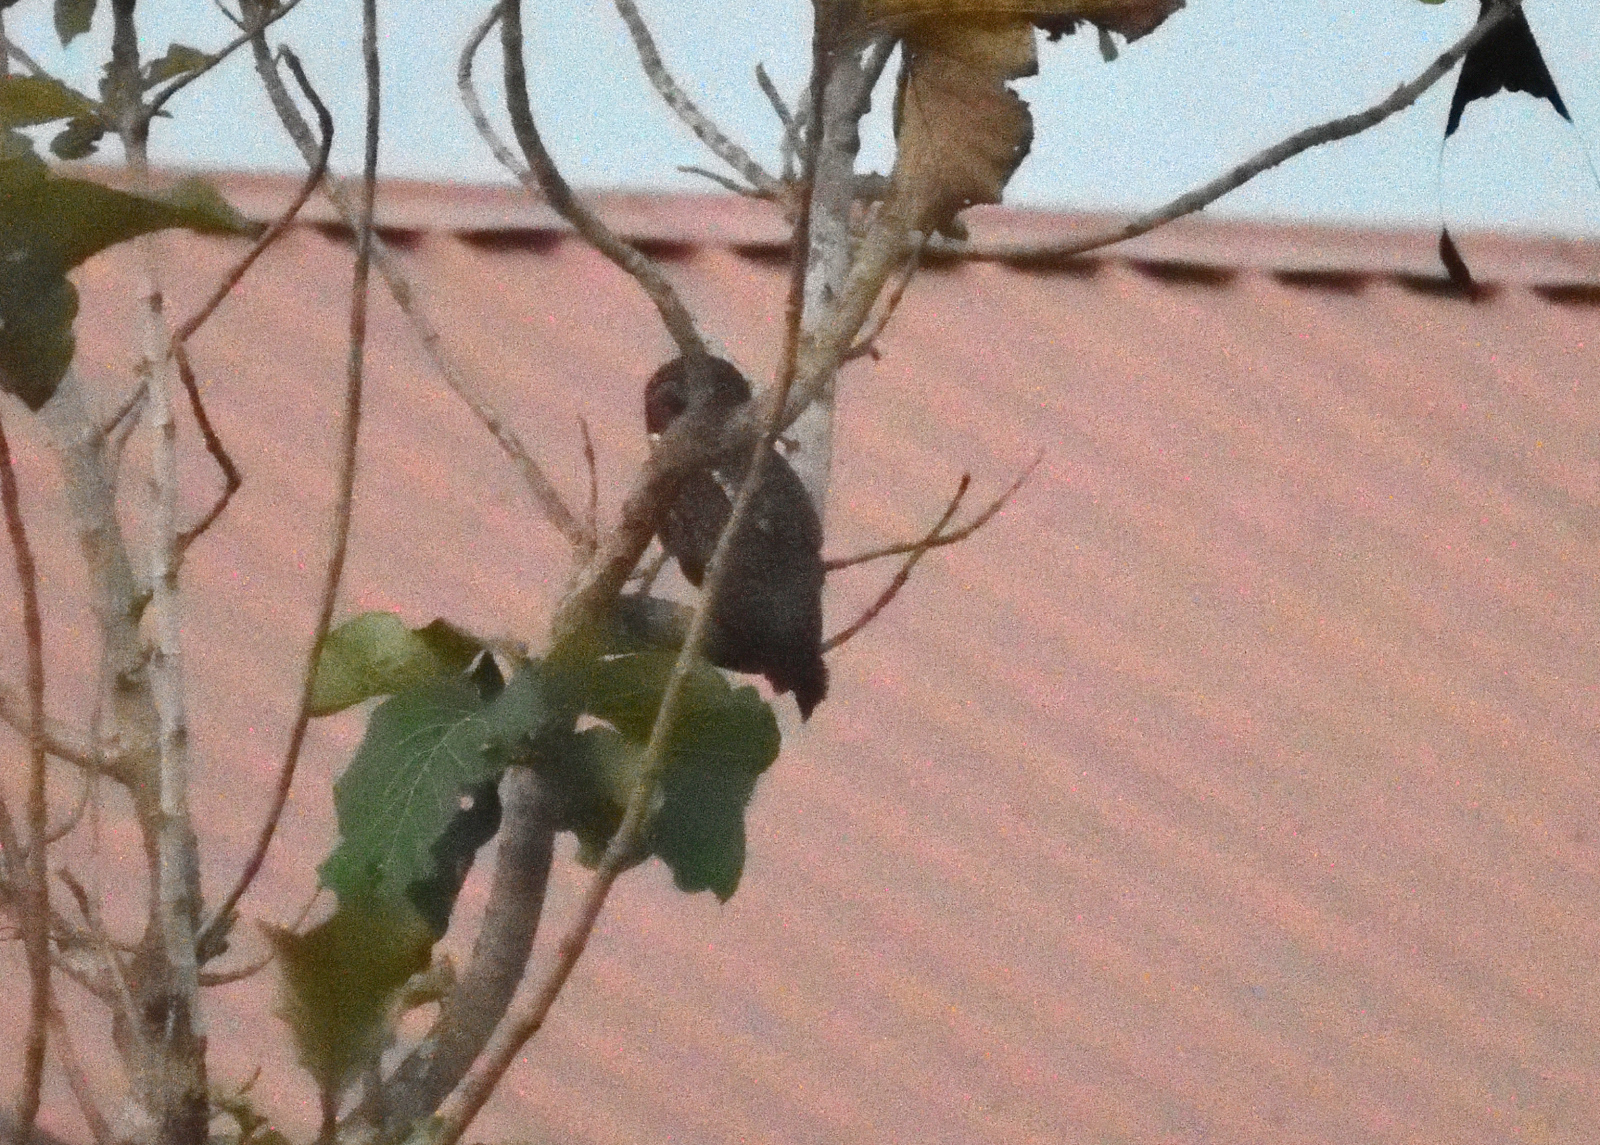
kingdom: Animalia
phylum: Chordata
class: Aves
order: Strigiformes
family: Strigidae
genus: Strix
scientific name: Strix ocellata
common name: Mottled wood owl
